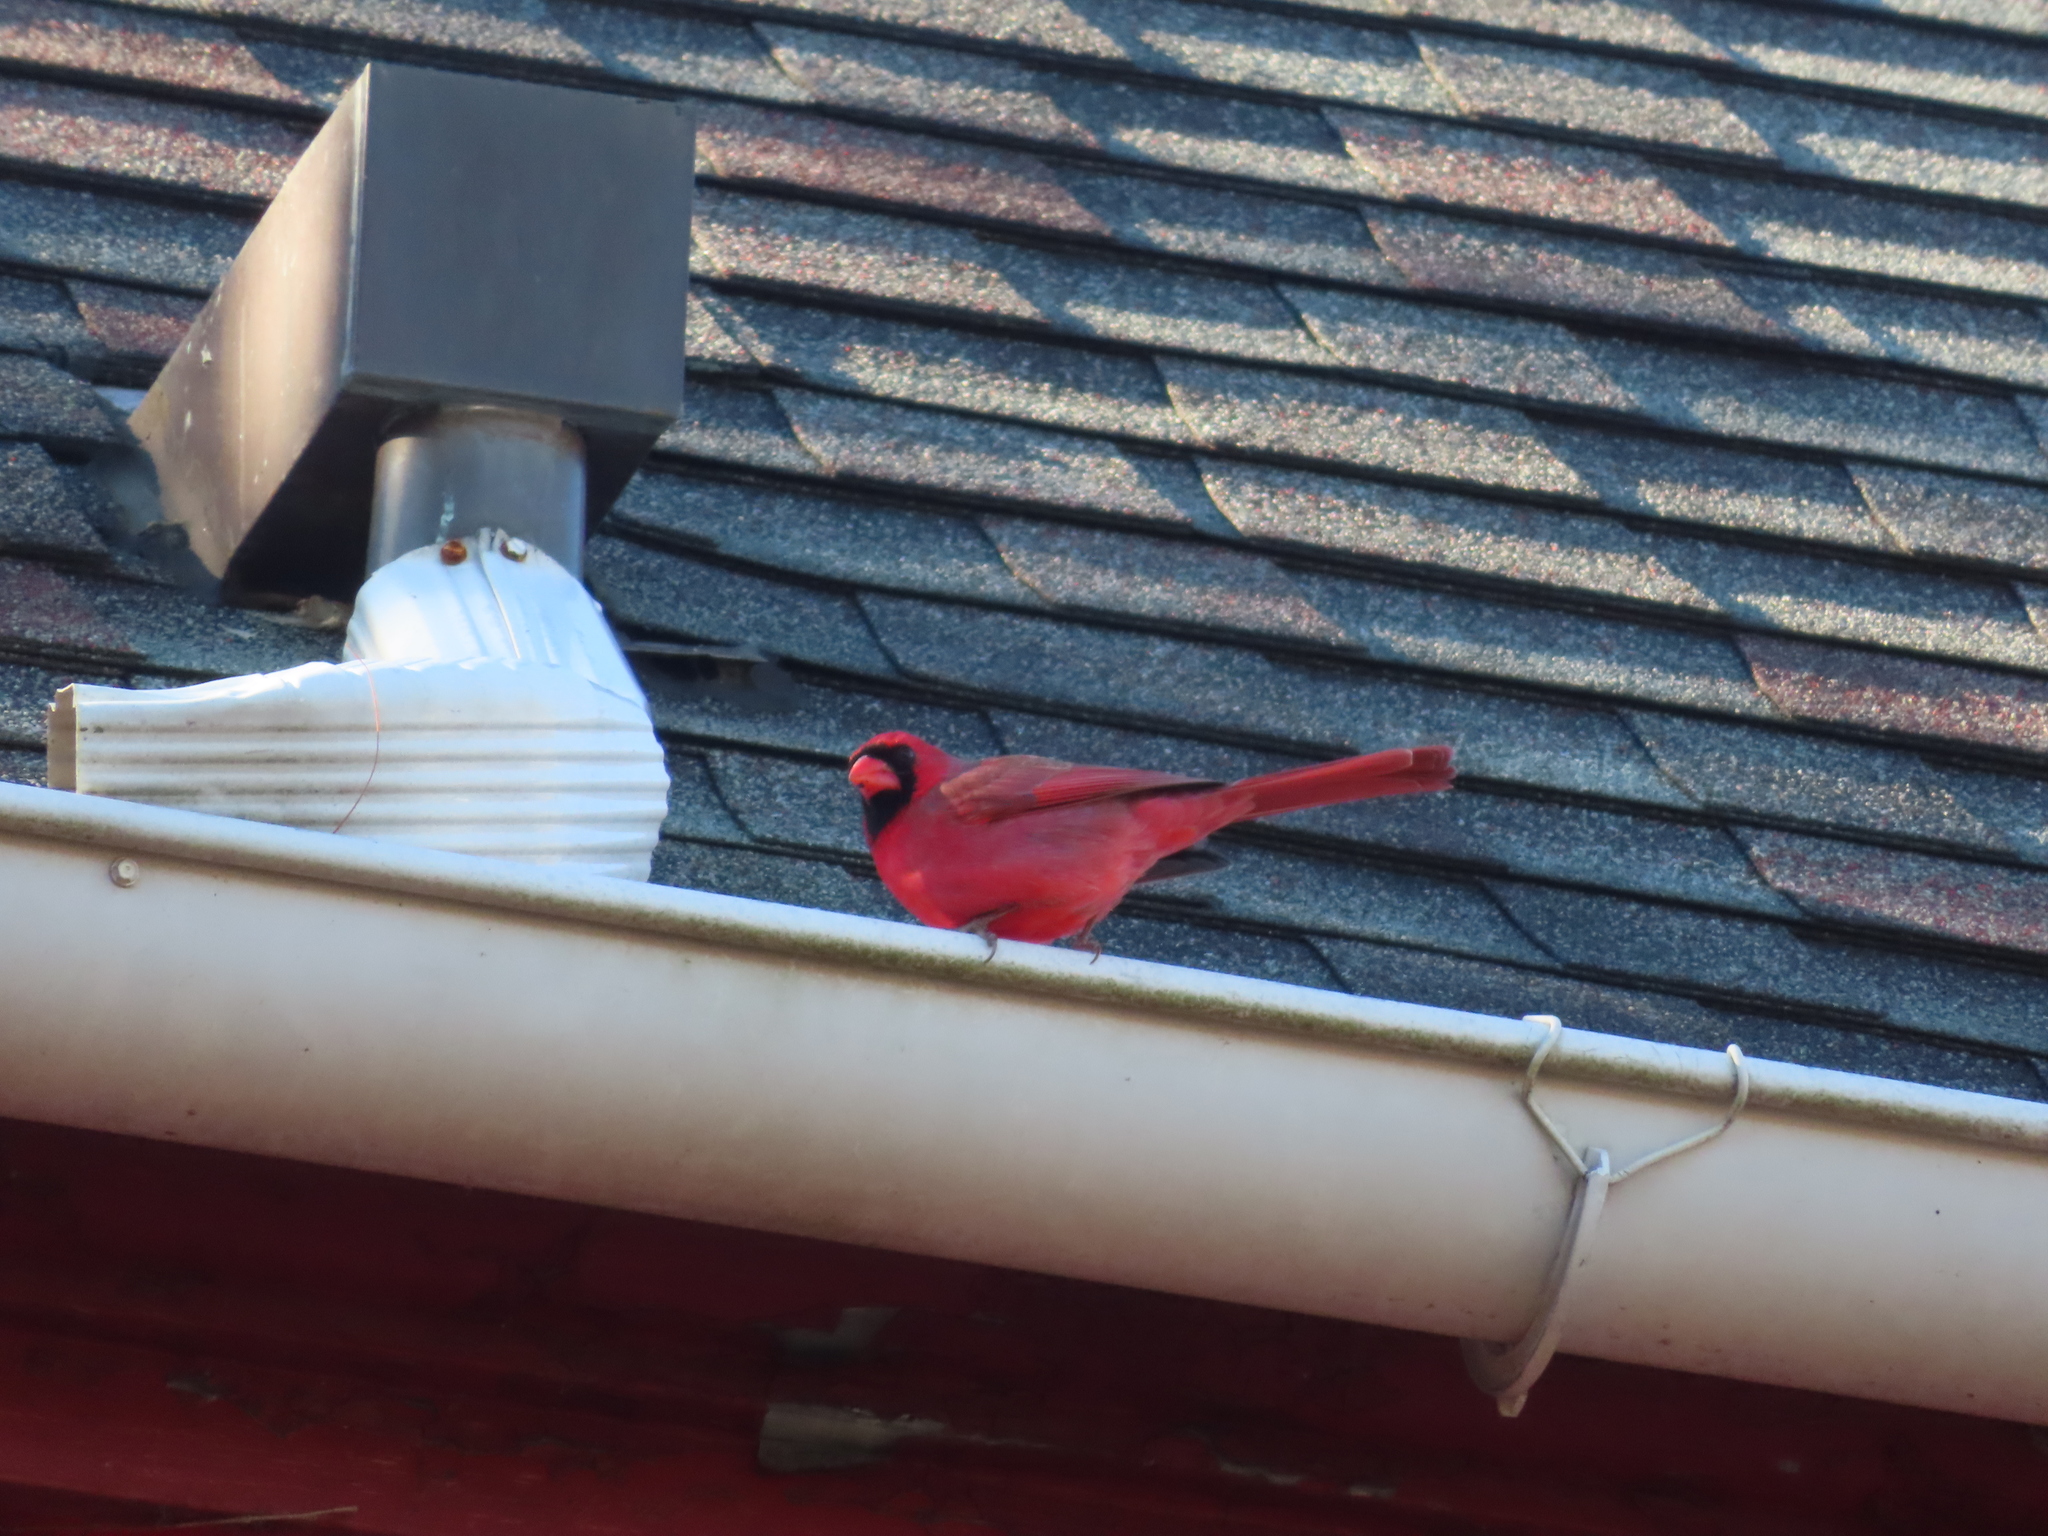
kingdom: Animalia
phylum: Chordata
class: Aves
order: Passeriformes
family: Cardinalidae
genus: Cardinalis
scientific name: Cardinalis cardinalis
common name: Northern cardinal
